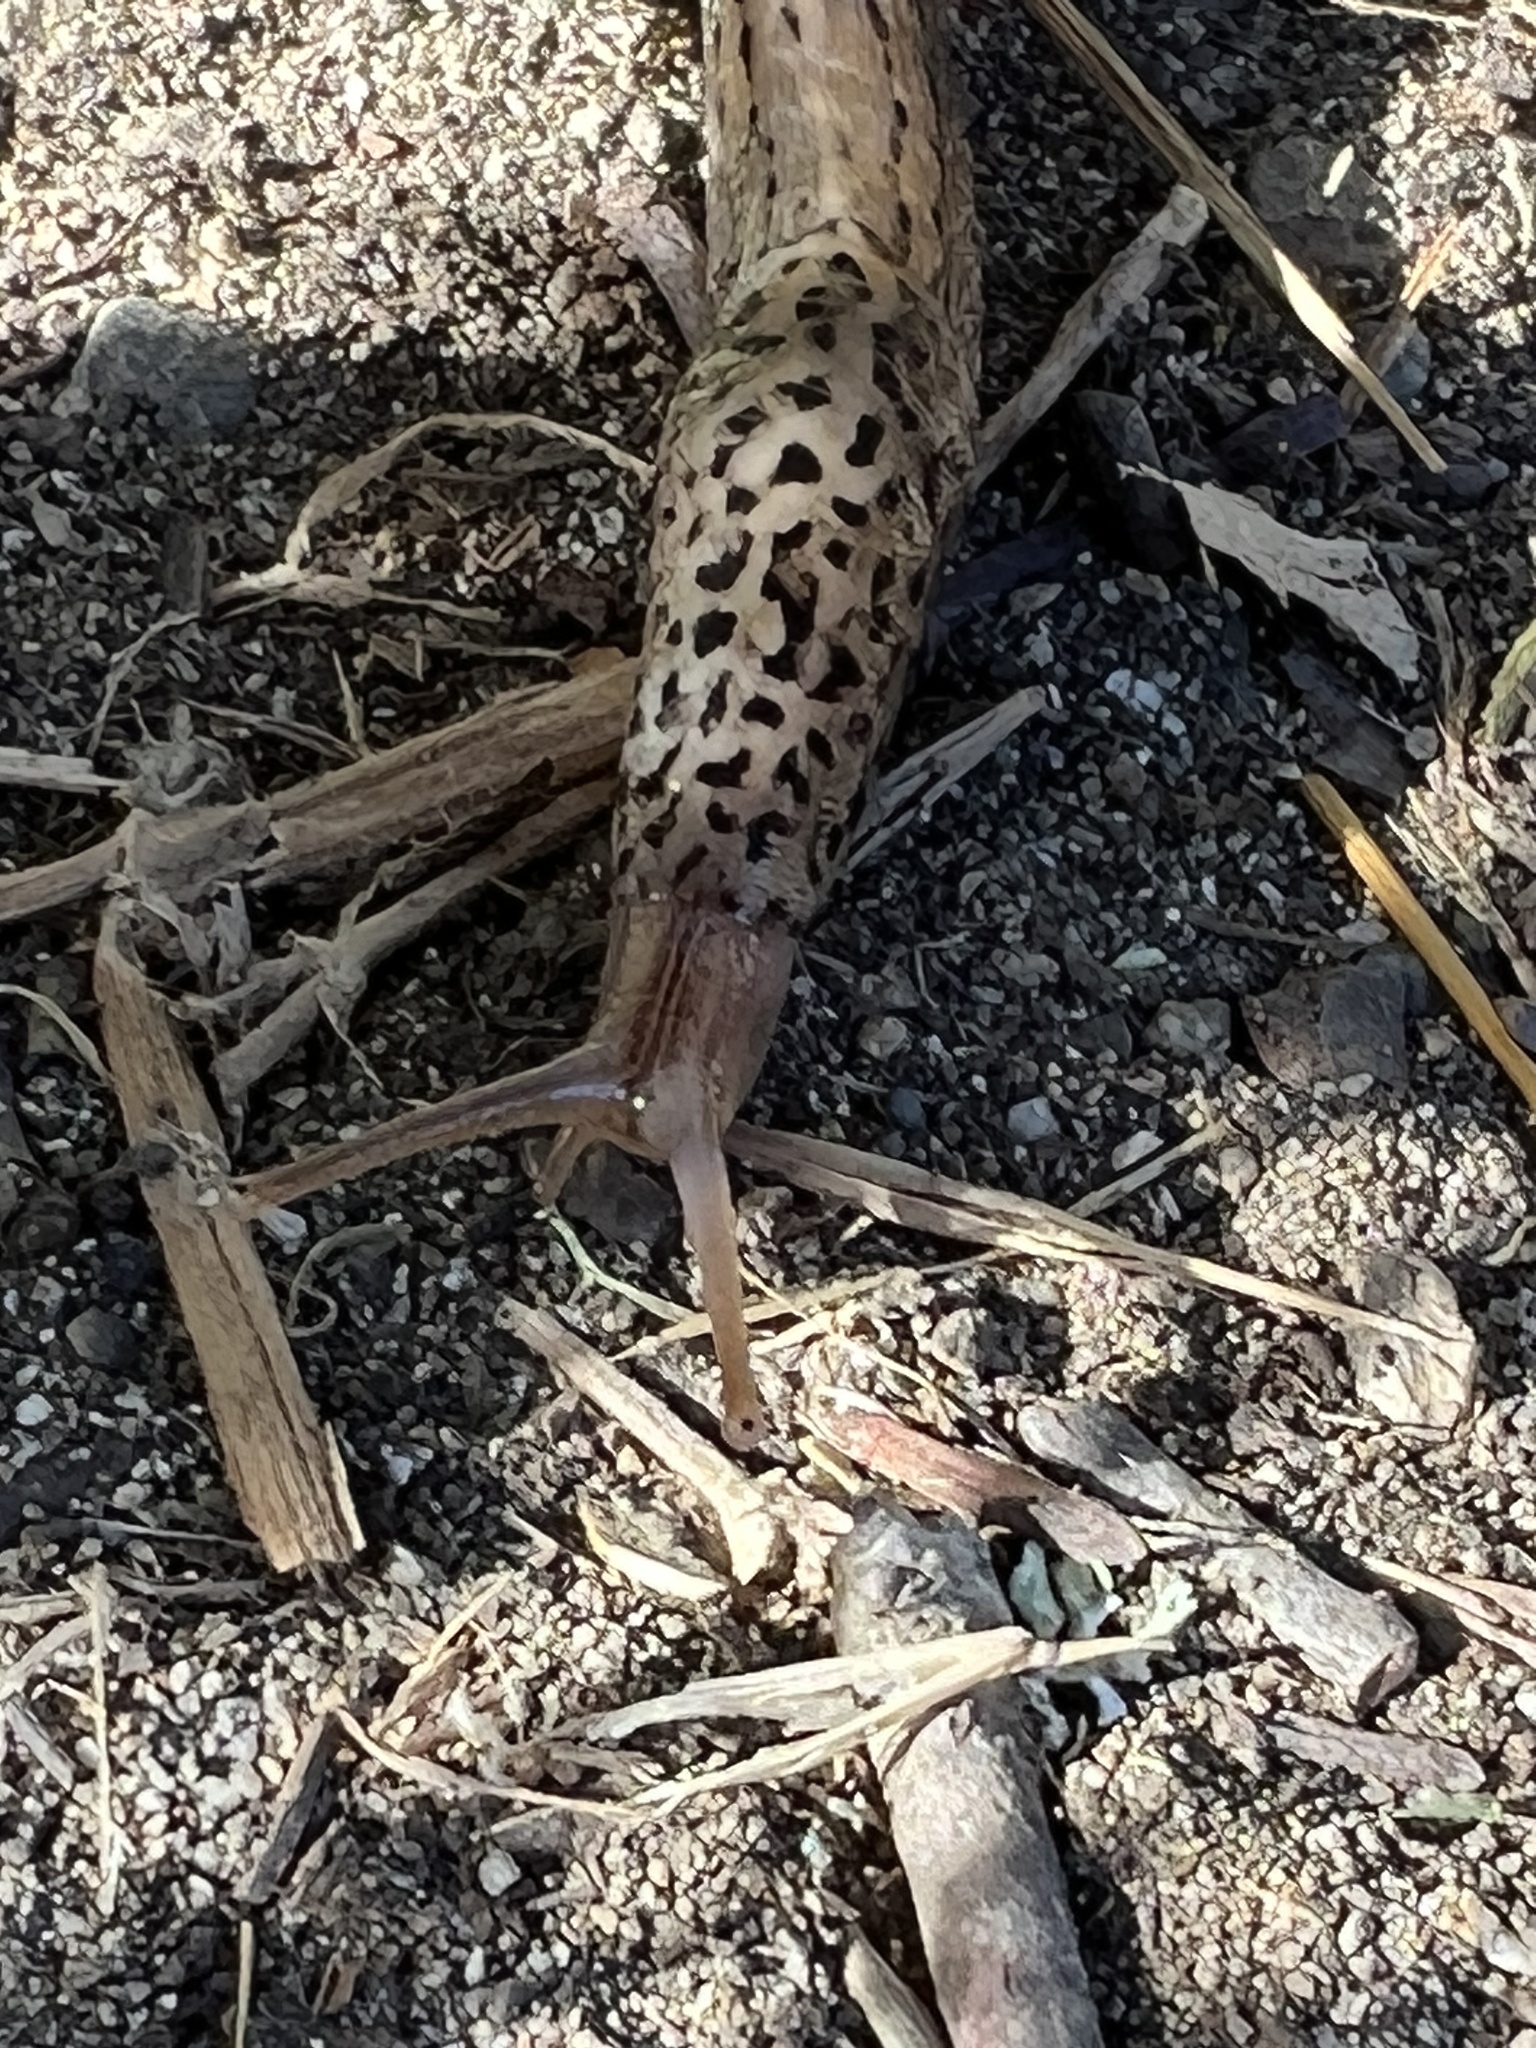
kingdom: Animalia
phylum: Mollusca
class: Gastropoda
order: Stylommatophora
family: Limacidae
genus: Limax
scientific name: Limax maximus
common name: Great grey slug
